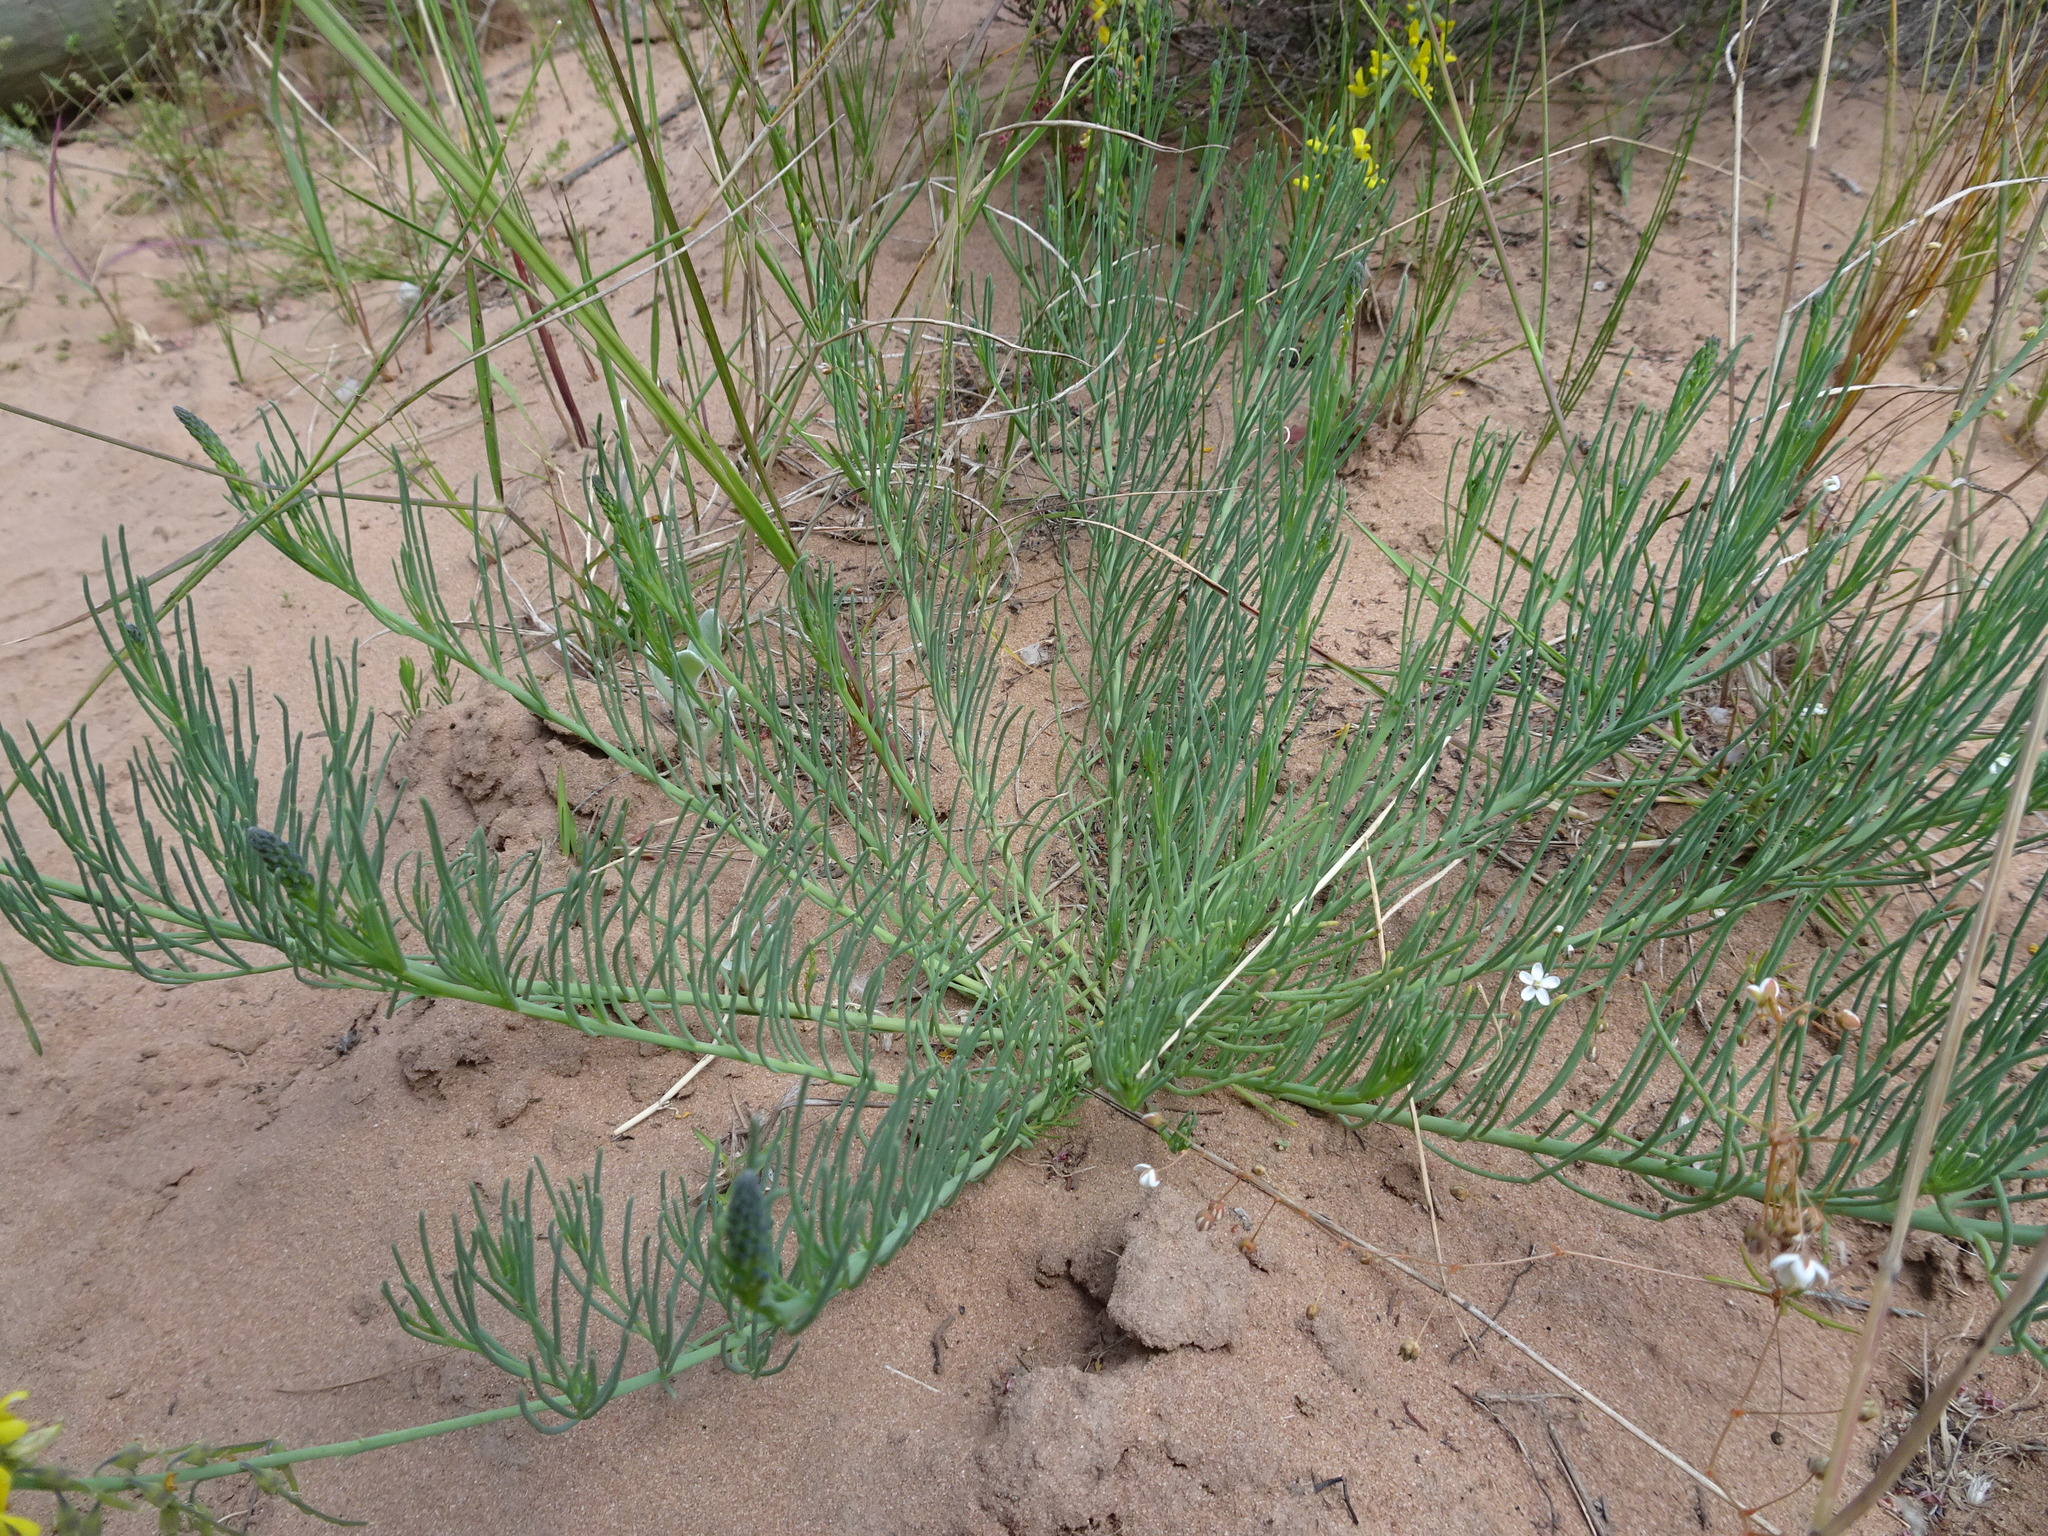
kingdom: Plantae
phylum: Tracheophyta
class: Magnoliopsida
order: Fabales
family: Fabaceae
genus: Lebeckia
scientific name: Lebeckia gracilis
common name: Slender ganna
